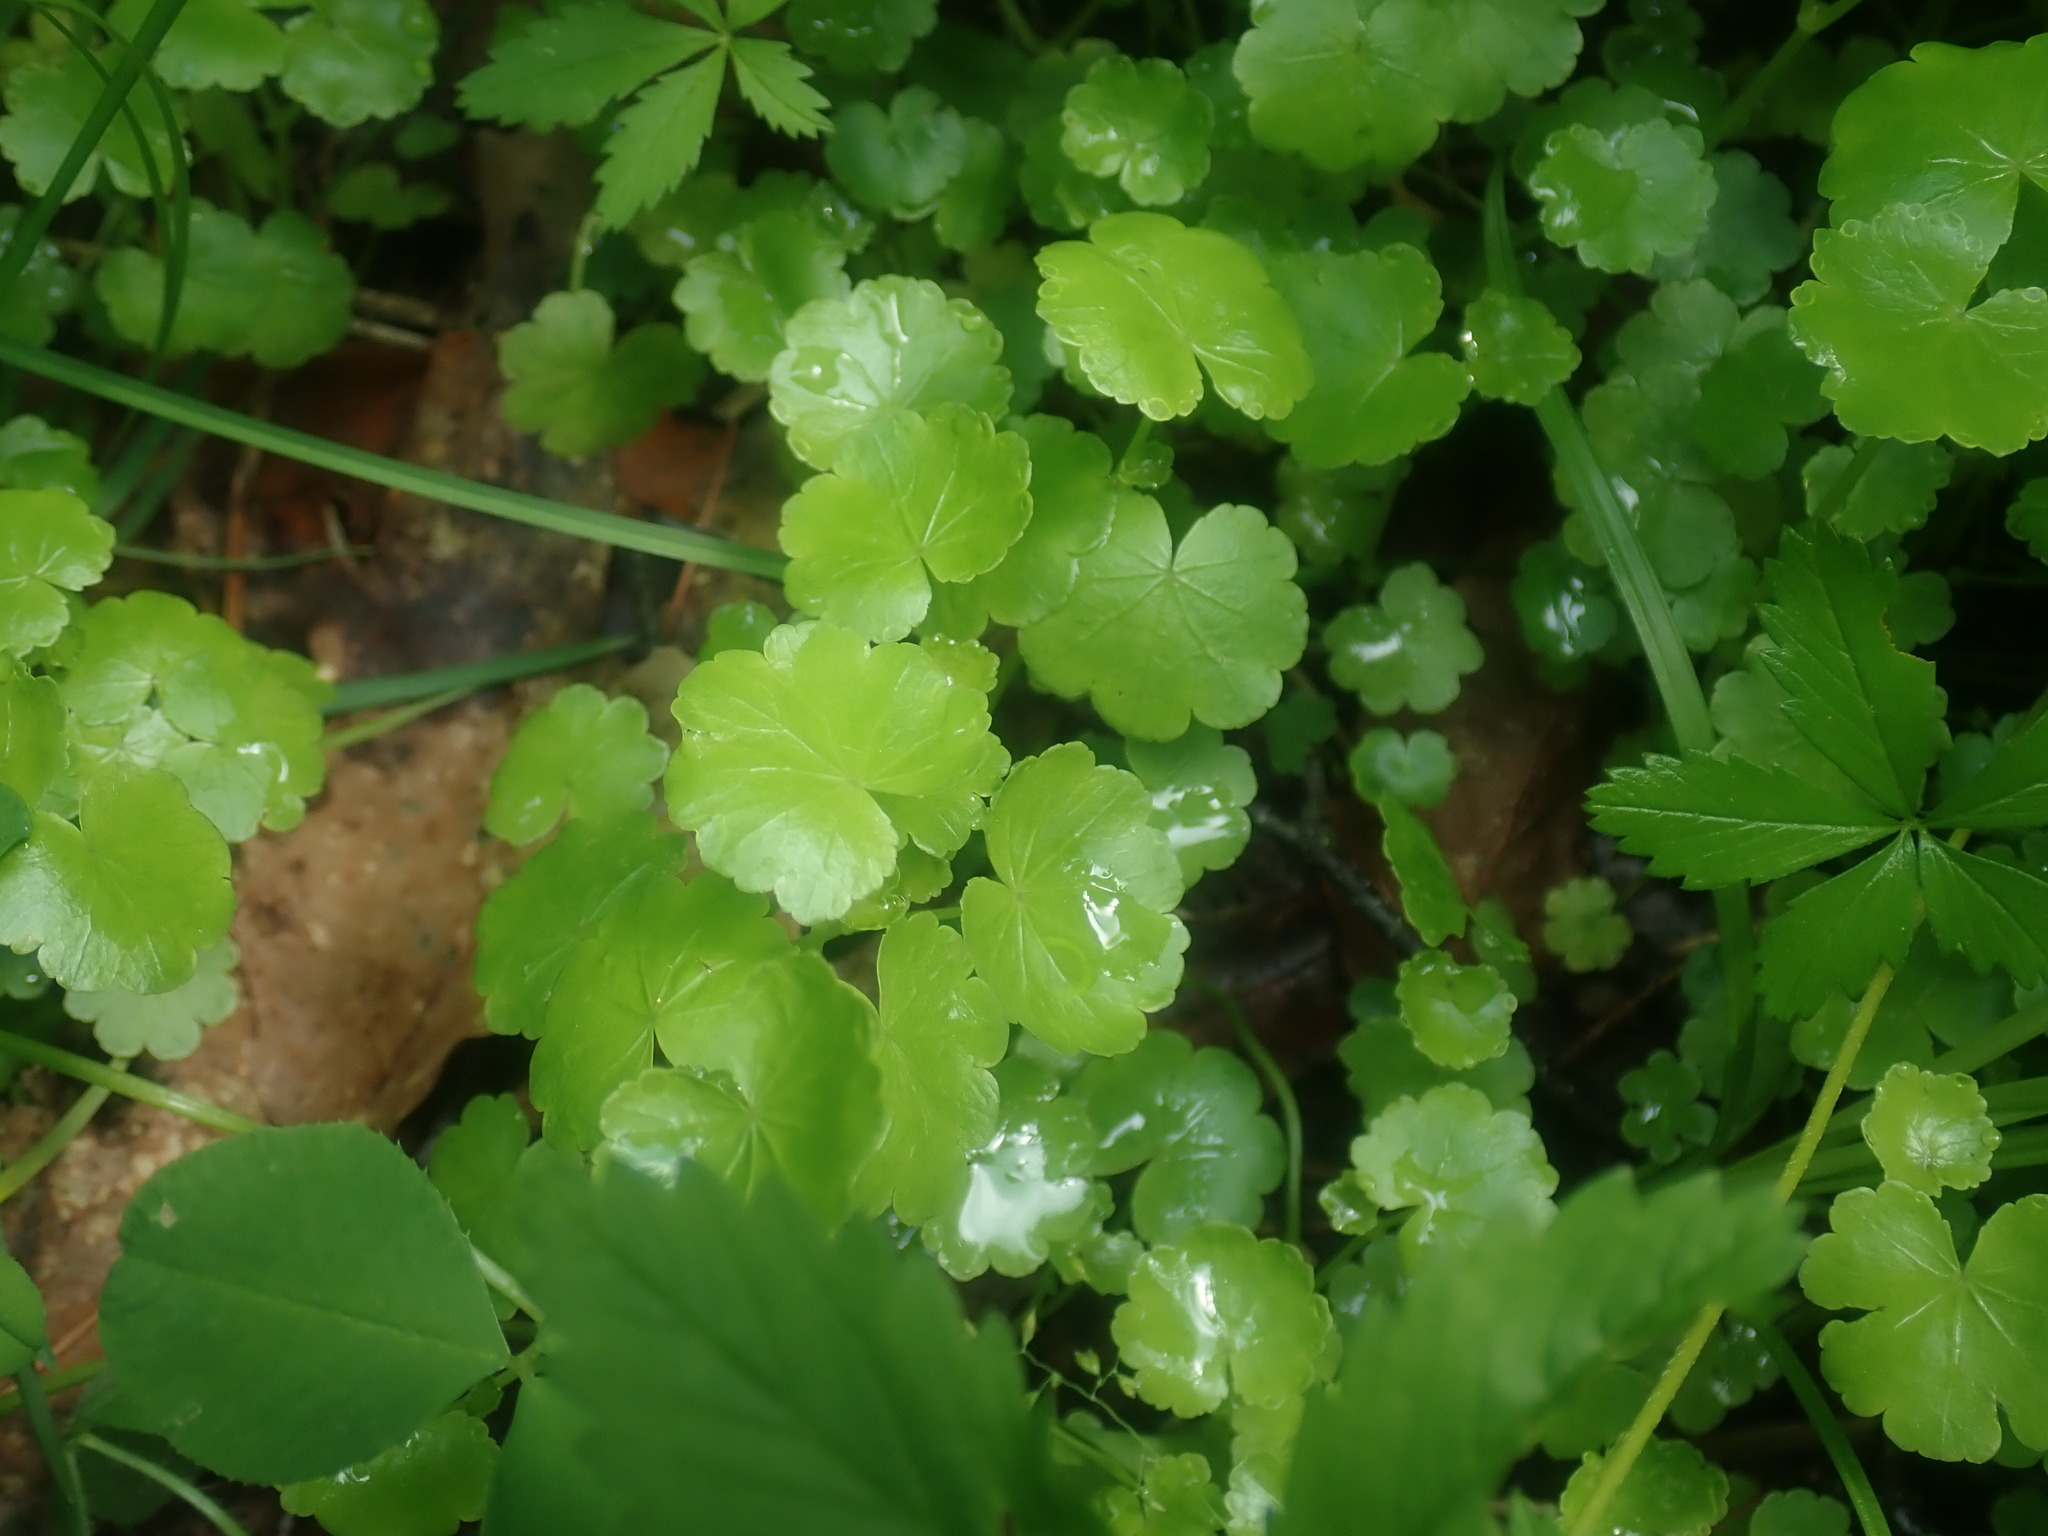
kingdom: Plantae
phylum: Tracheophyta
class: Magnoliopsida
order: Apiales
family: Araliaceae
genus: Hydrocotyle
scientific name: Hydrocotyle americana
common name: American water-pennywort
